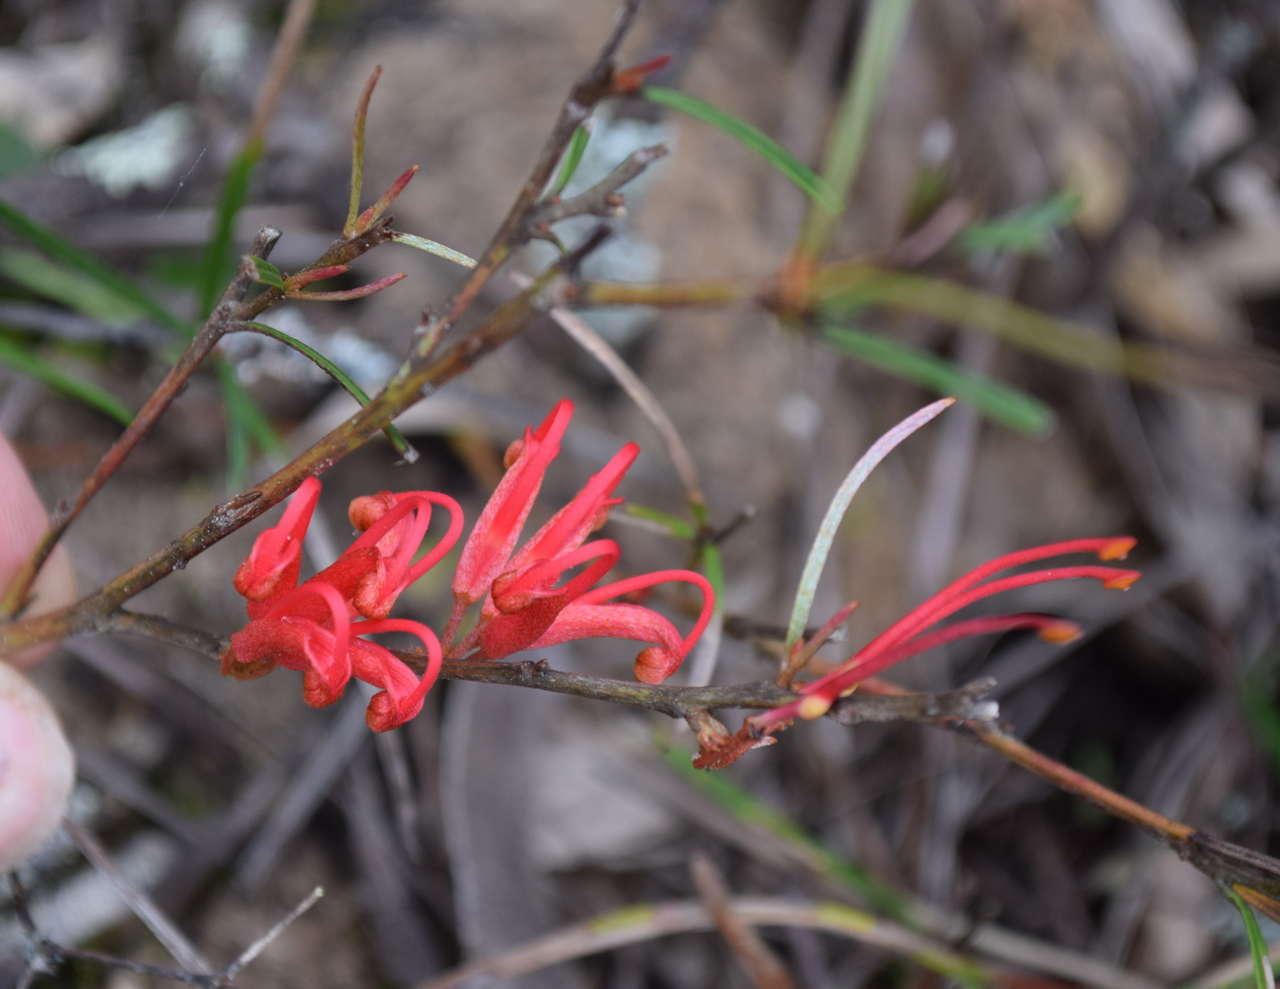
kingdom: Plantae
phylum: Tracheophyta
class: Magnoliopsida
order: Proteales
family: Proteaceae
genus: Grevillea
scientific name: Grevillea dimorpha
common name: Flame grevillea
